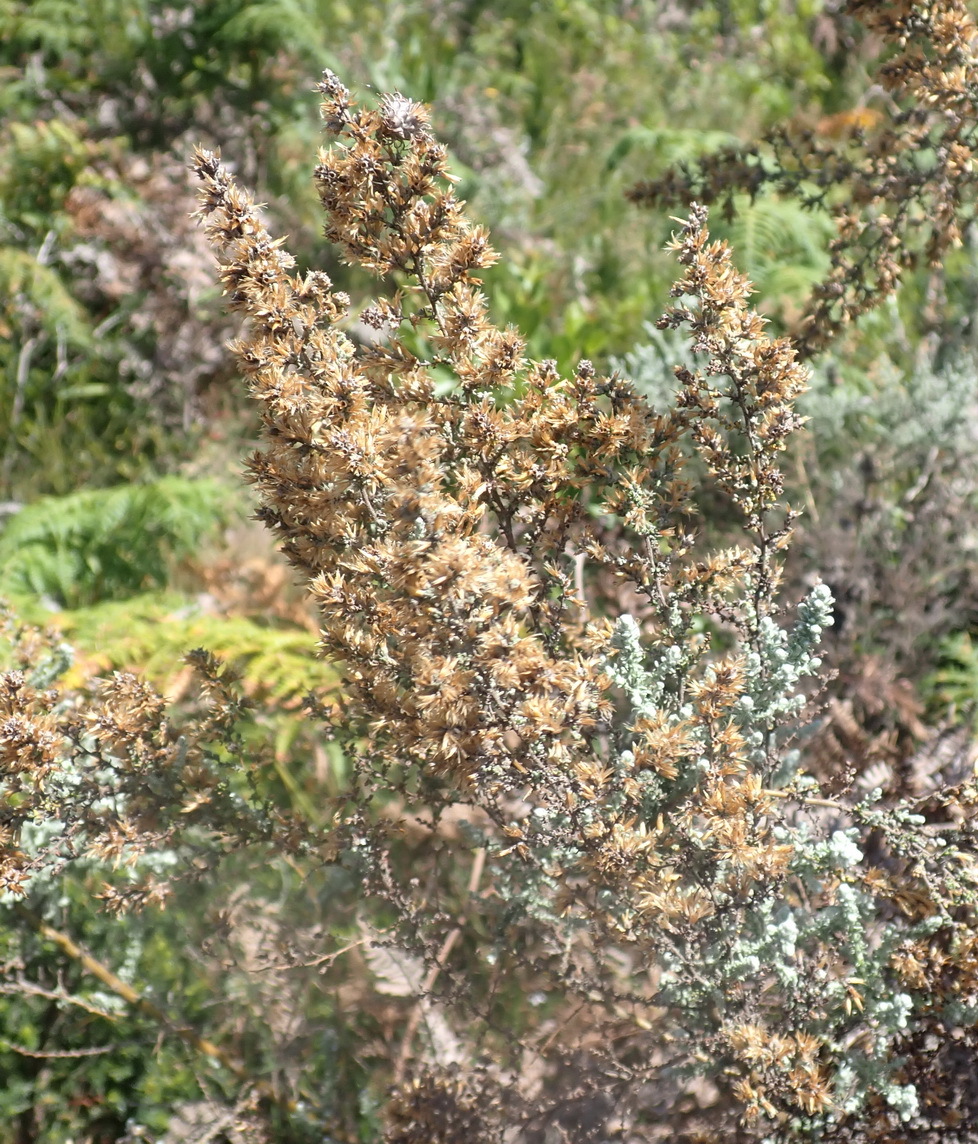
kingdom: Plantae
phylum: Tracheophyta
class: Magnoliopsida
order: Asterales
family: Asteraceae
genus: Seriphium
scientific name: Seriphium cinereum
